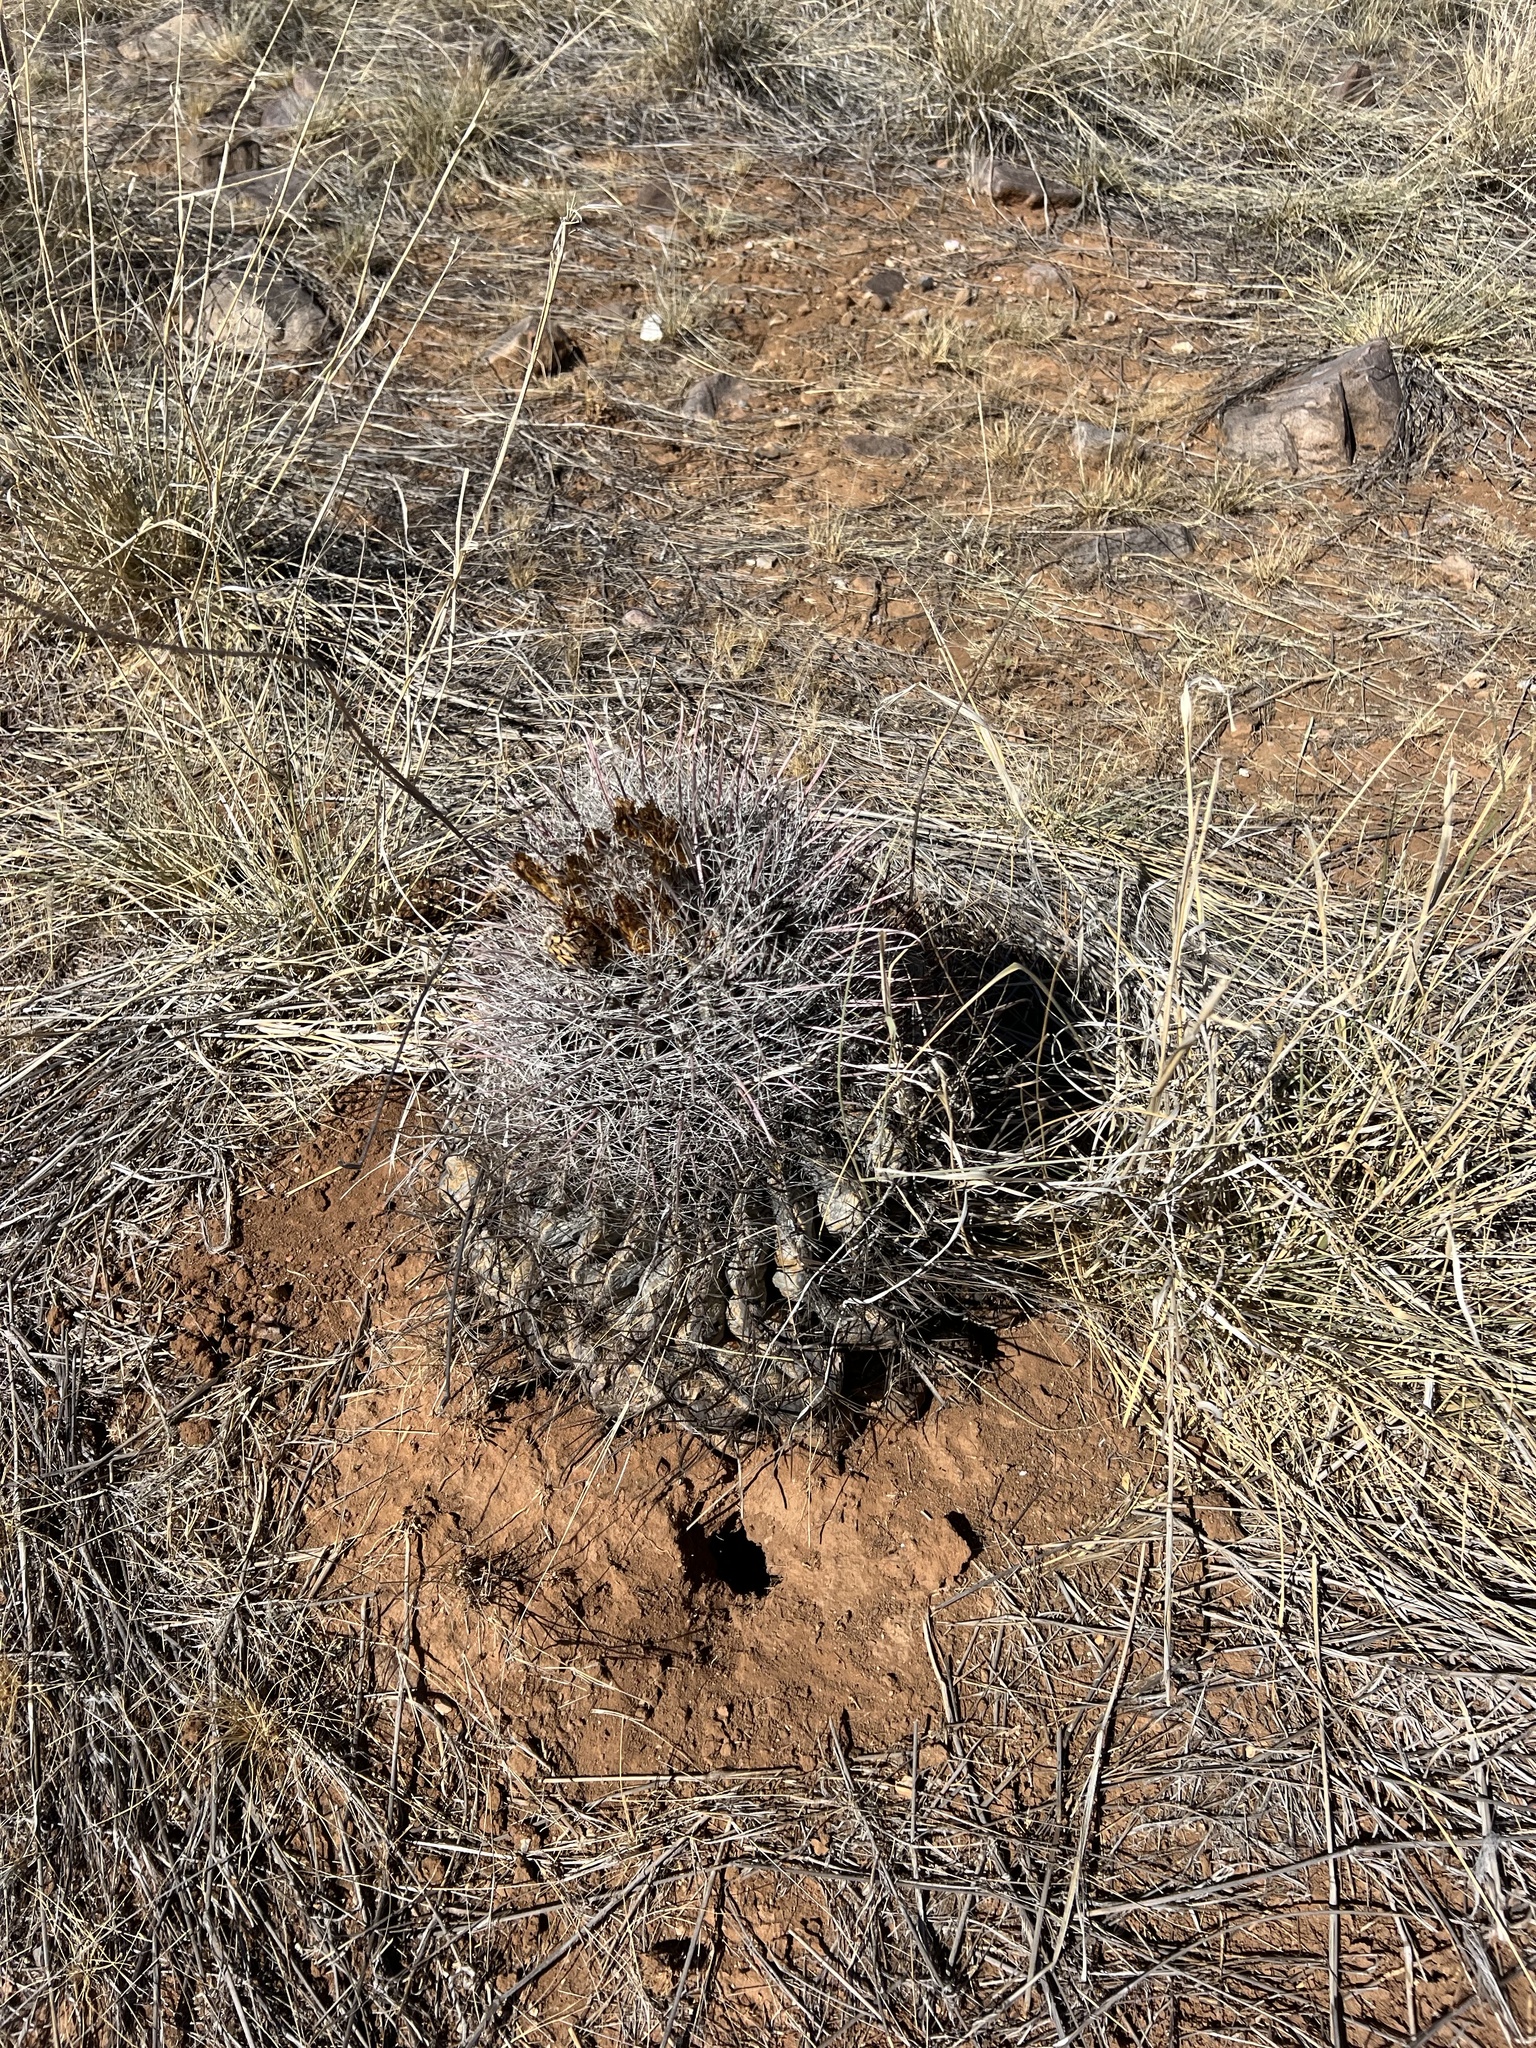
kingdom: Plantae
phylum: Tracheophyta
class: Magnoliopsida
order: Caryophyllales
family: Cactaceae
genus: Ferocactus
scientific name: Ferocactus wislizeni
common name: Candy barrel cactus
